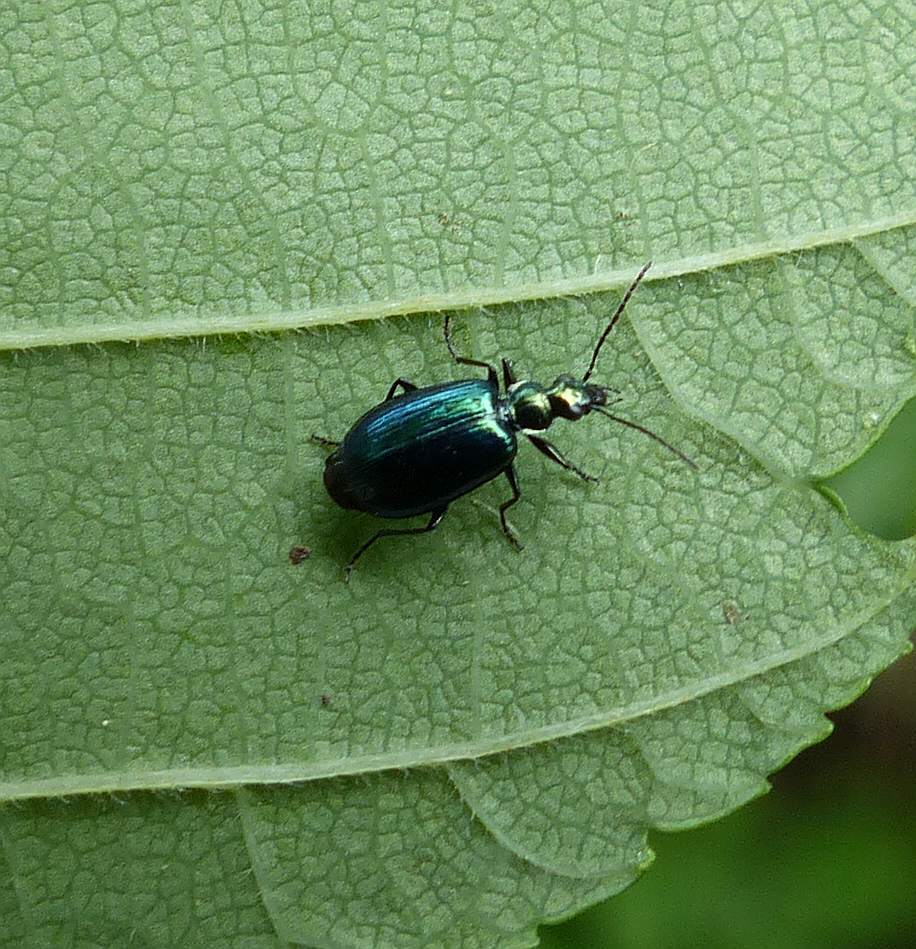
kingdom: Animalia
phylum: Arthropoda
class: Insecta
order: Coleoptera
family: Carabidae
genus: Lebia
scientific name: Lebia viridis
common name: Flower lebia beetle
